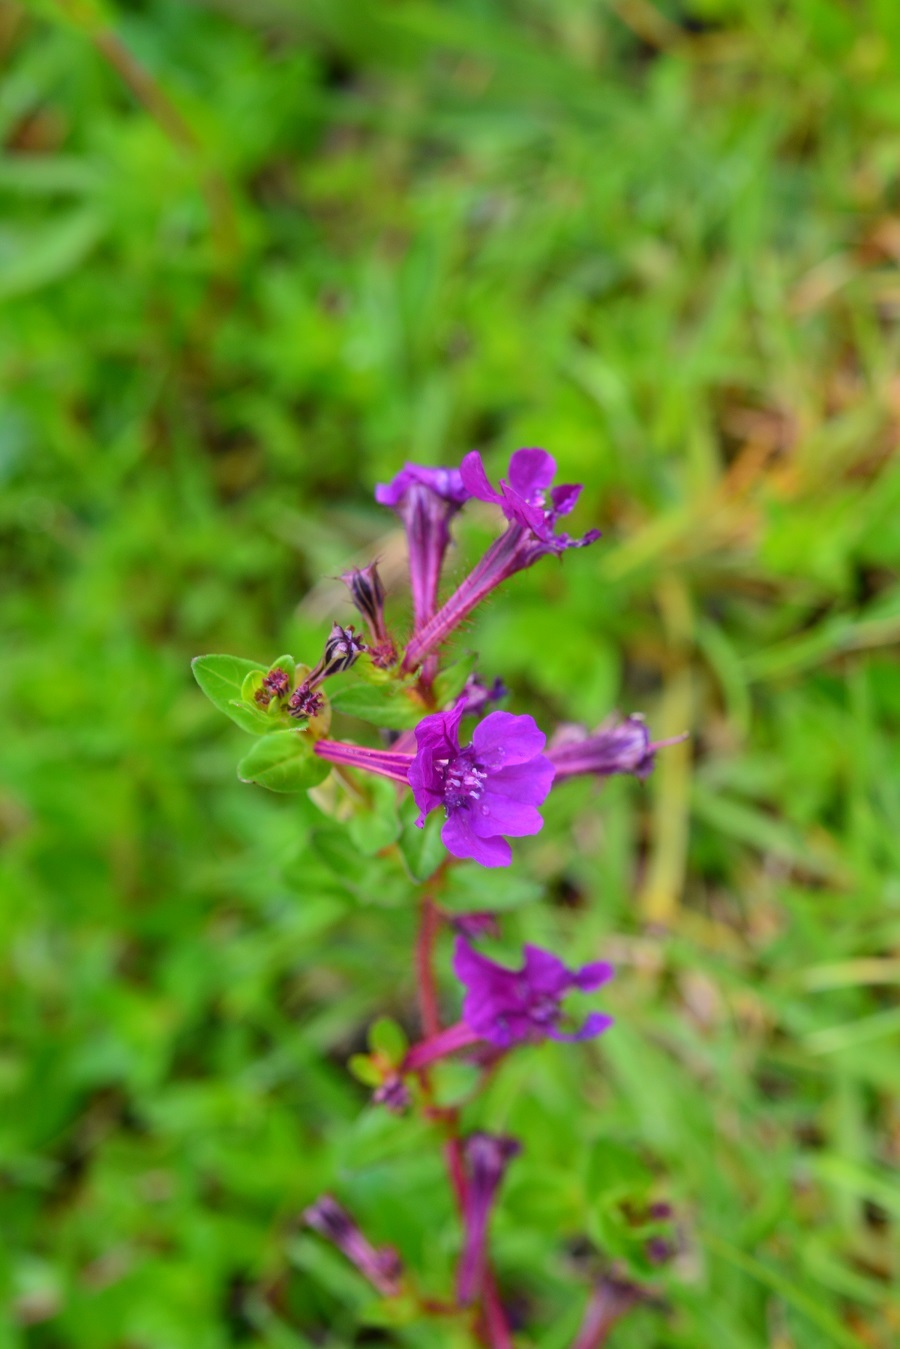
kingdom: Plantae
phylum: Tracheophyta
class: Magnoliopsida
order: Myrtales
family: Lythraceae
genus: Cuphea
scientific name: Cuphea aequipetala
